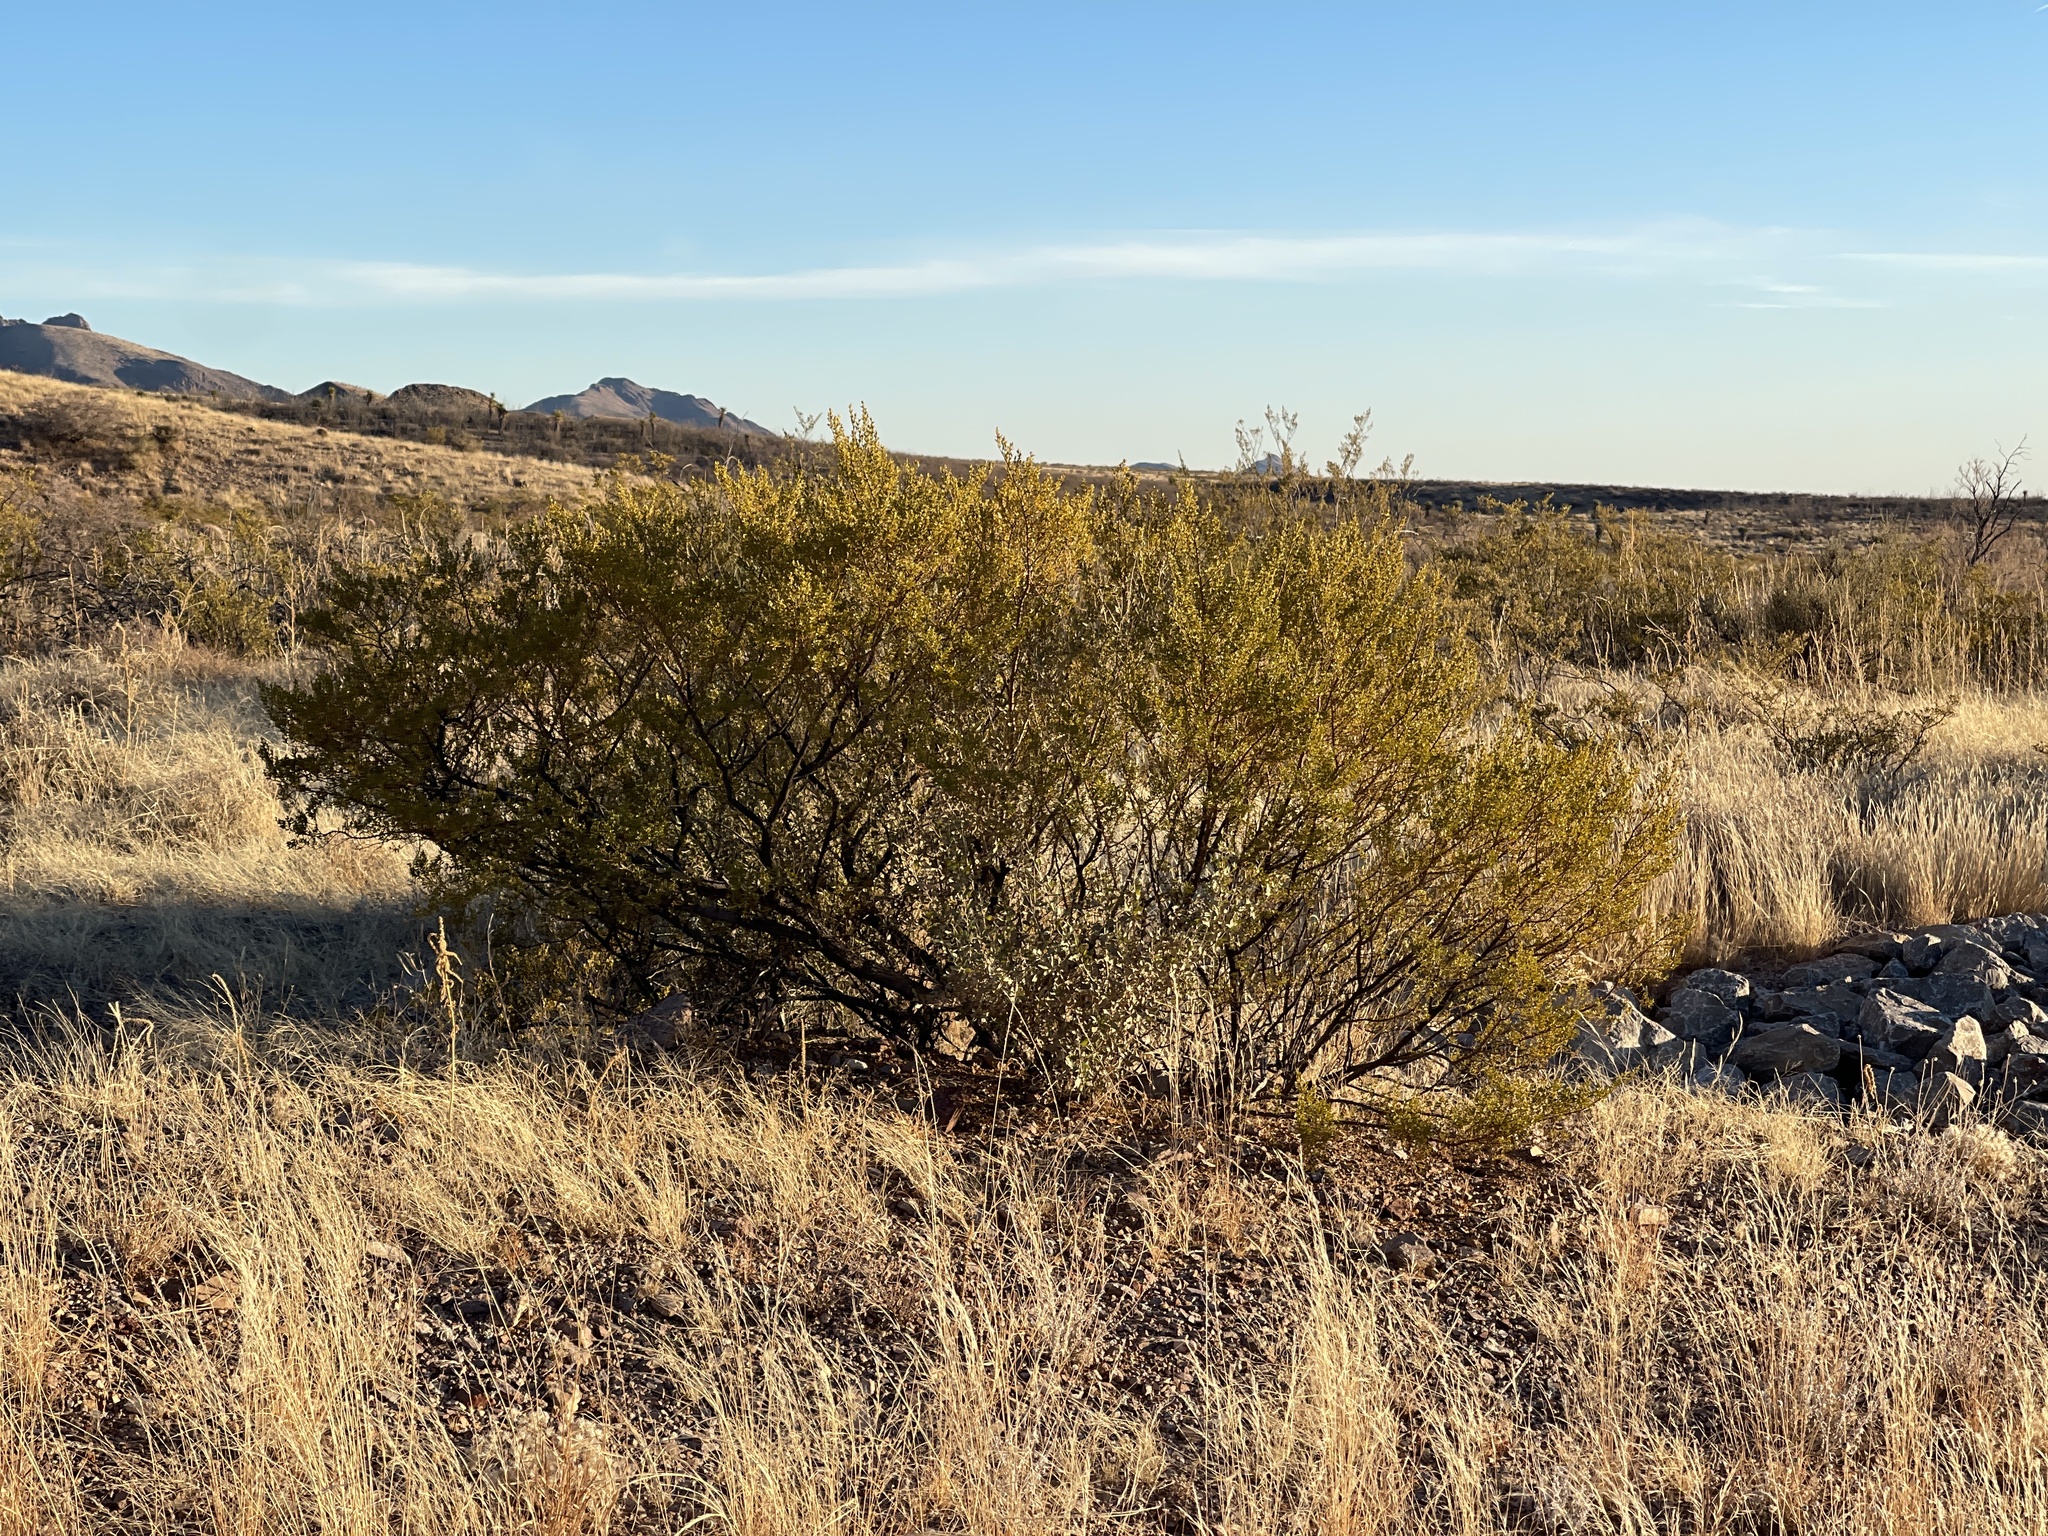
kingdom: Plantae
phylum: Tracheophyta
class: Magnoliopsida
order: Zygophyllales
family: Zygophyllaceae
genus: Larrea
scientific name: Larrea tridentata
